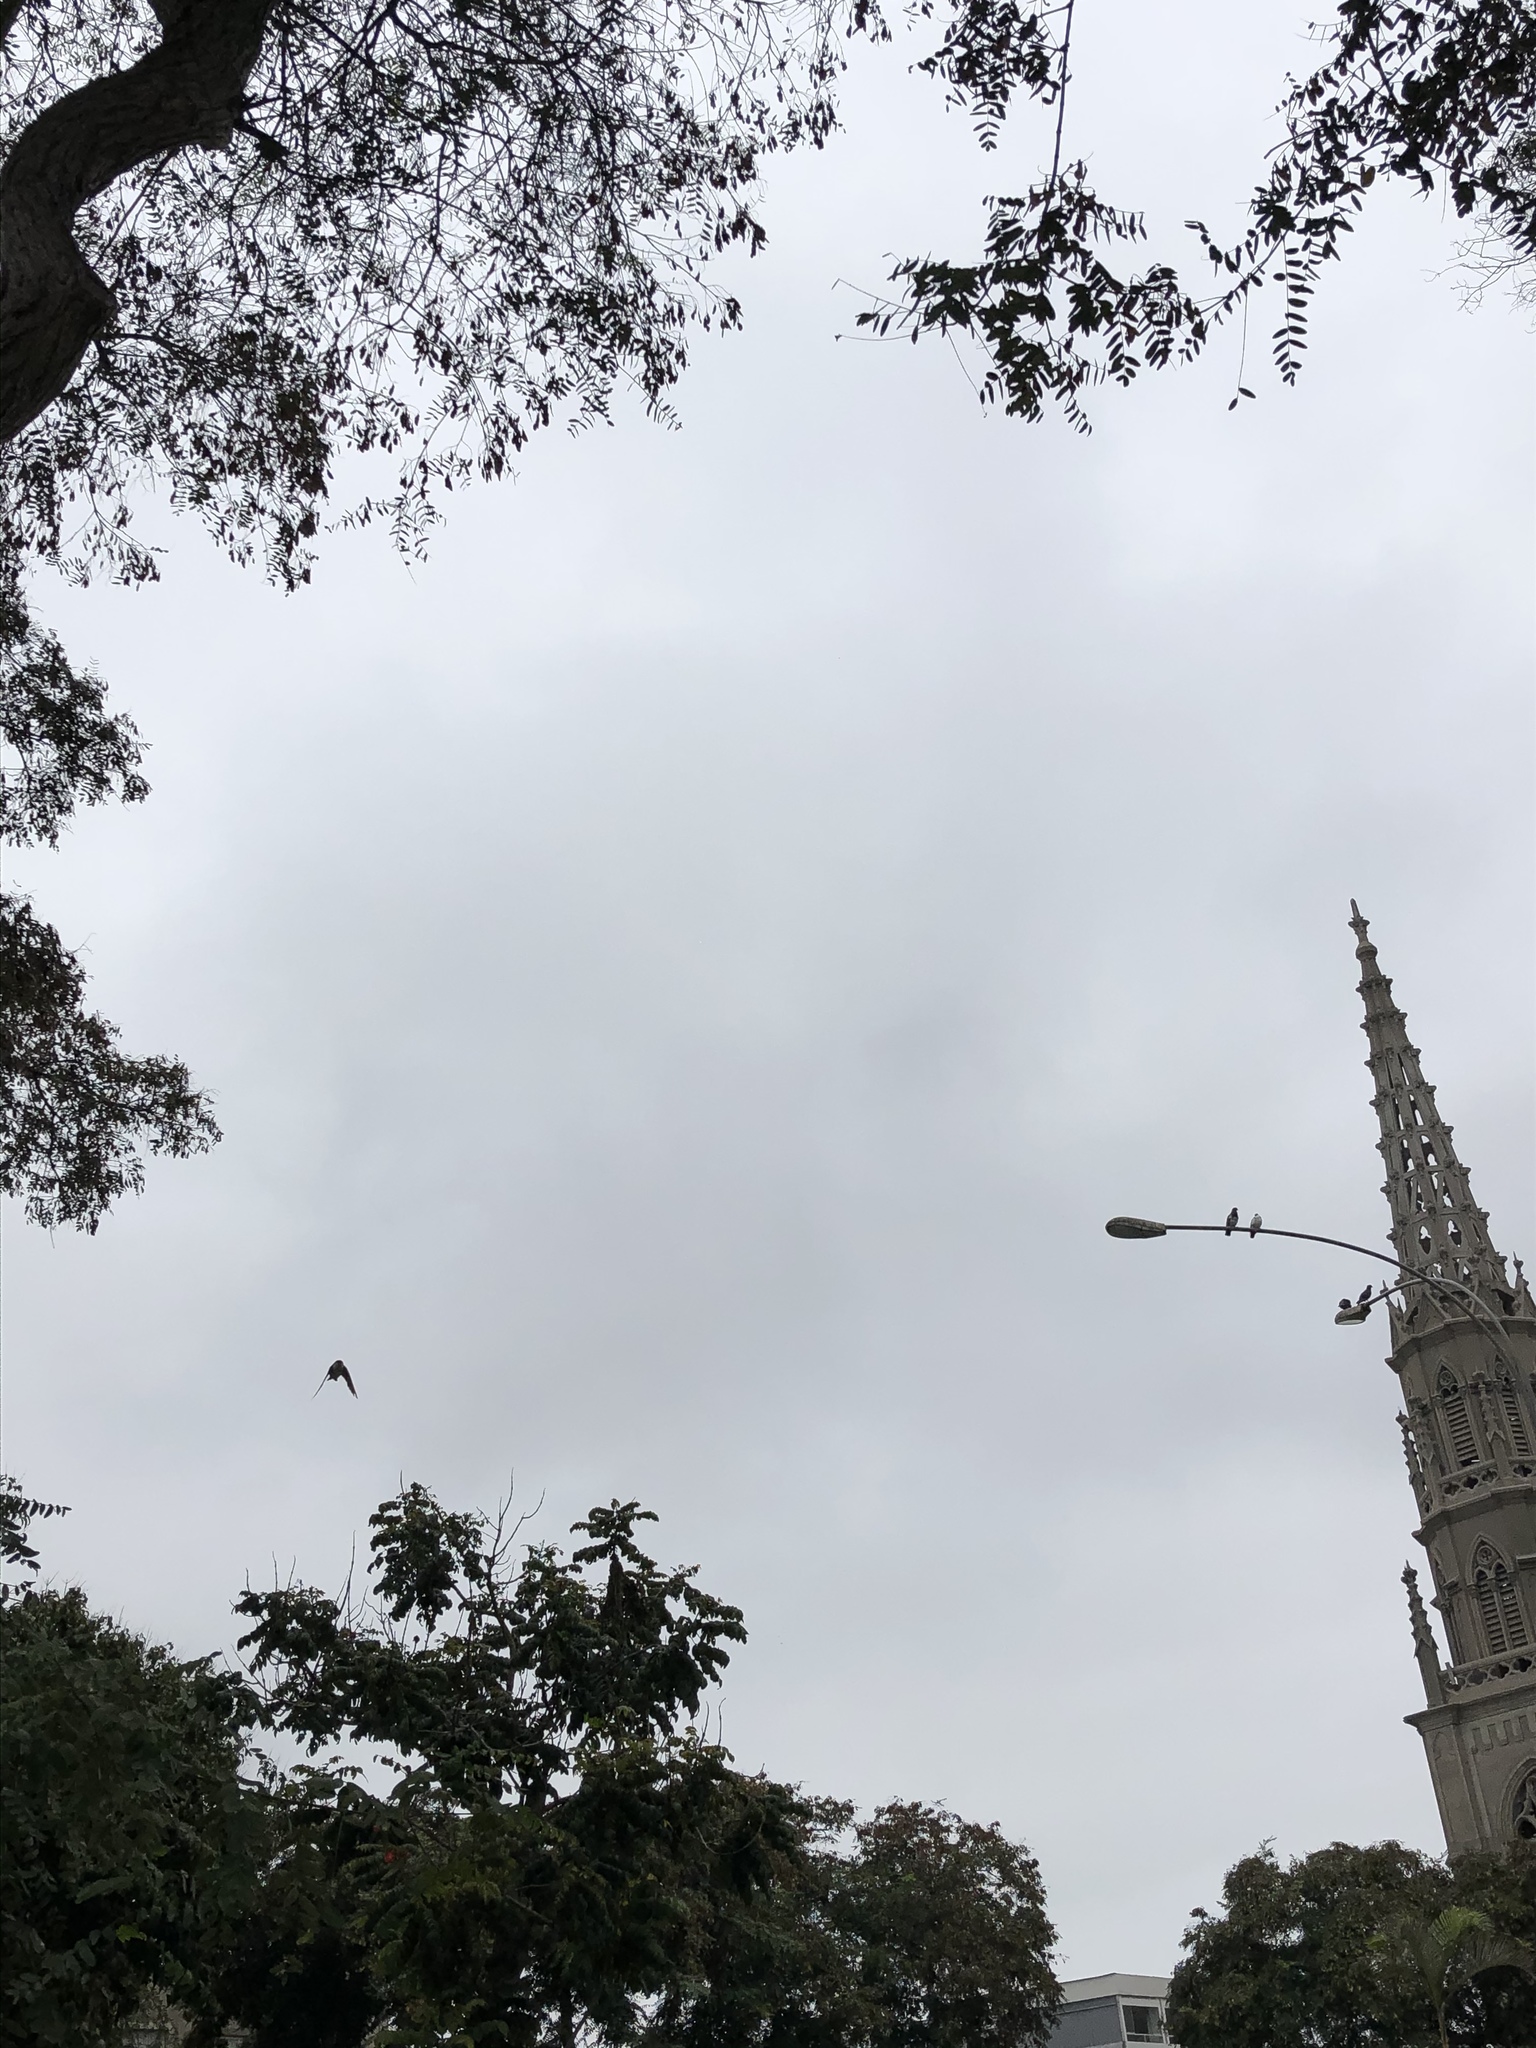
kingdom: Animalia
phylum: Chordata
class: Aves
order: Passeriformes
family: Hirundinidae
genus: Notiochelidon
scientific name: Notiochelidon cyanoleuca
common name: Blue-and-white swallow
